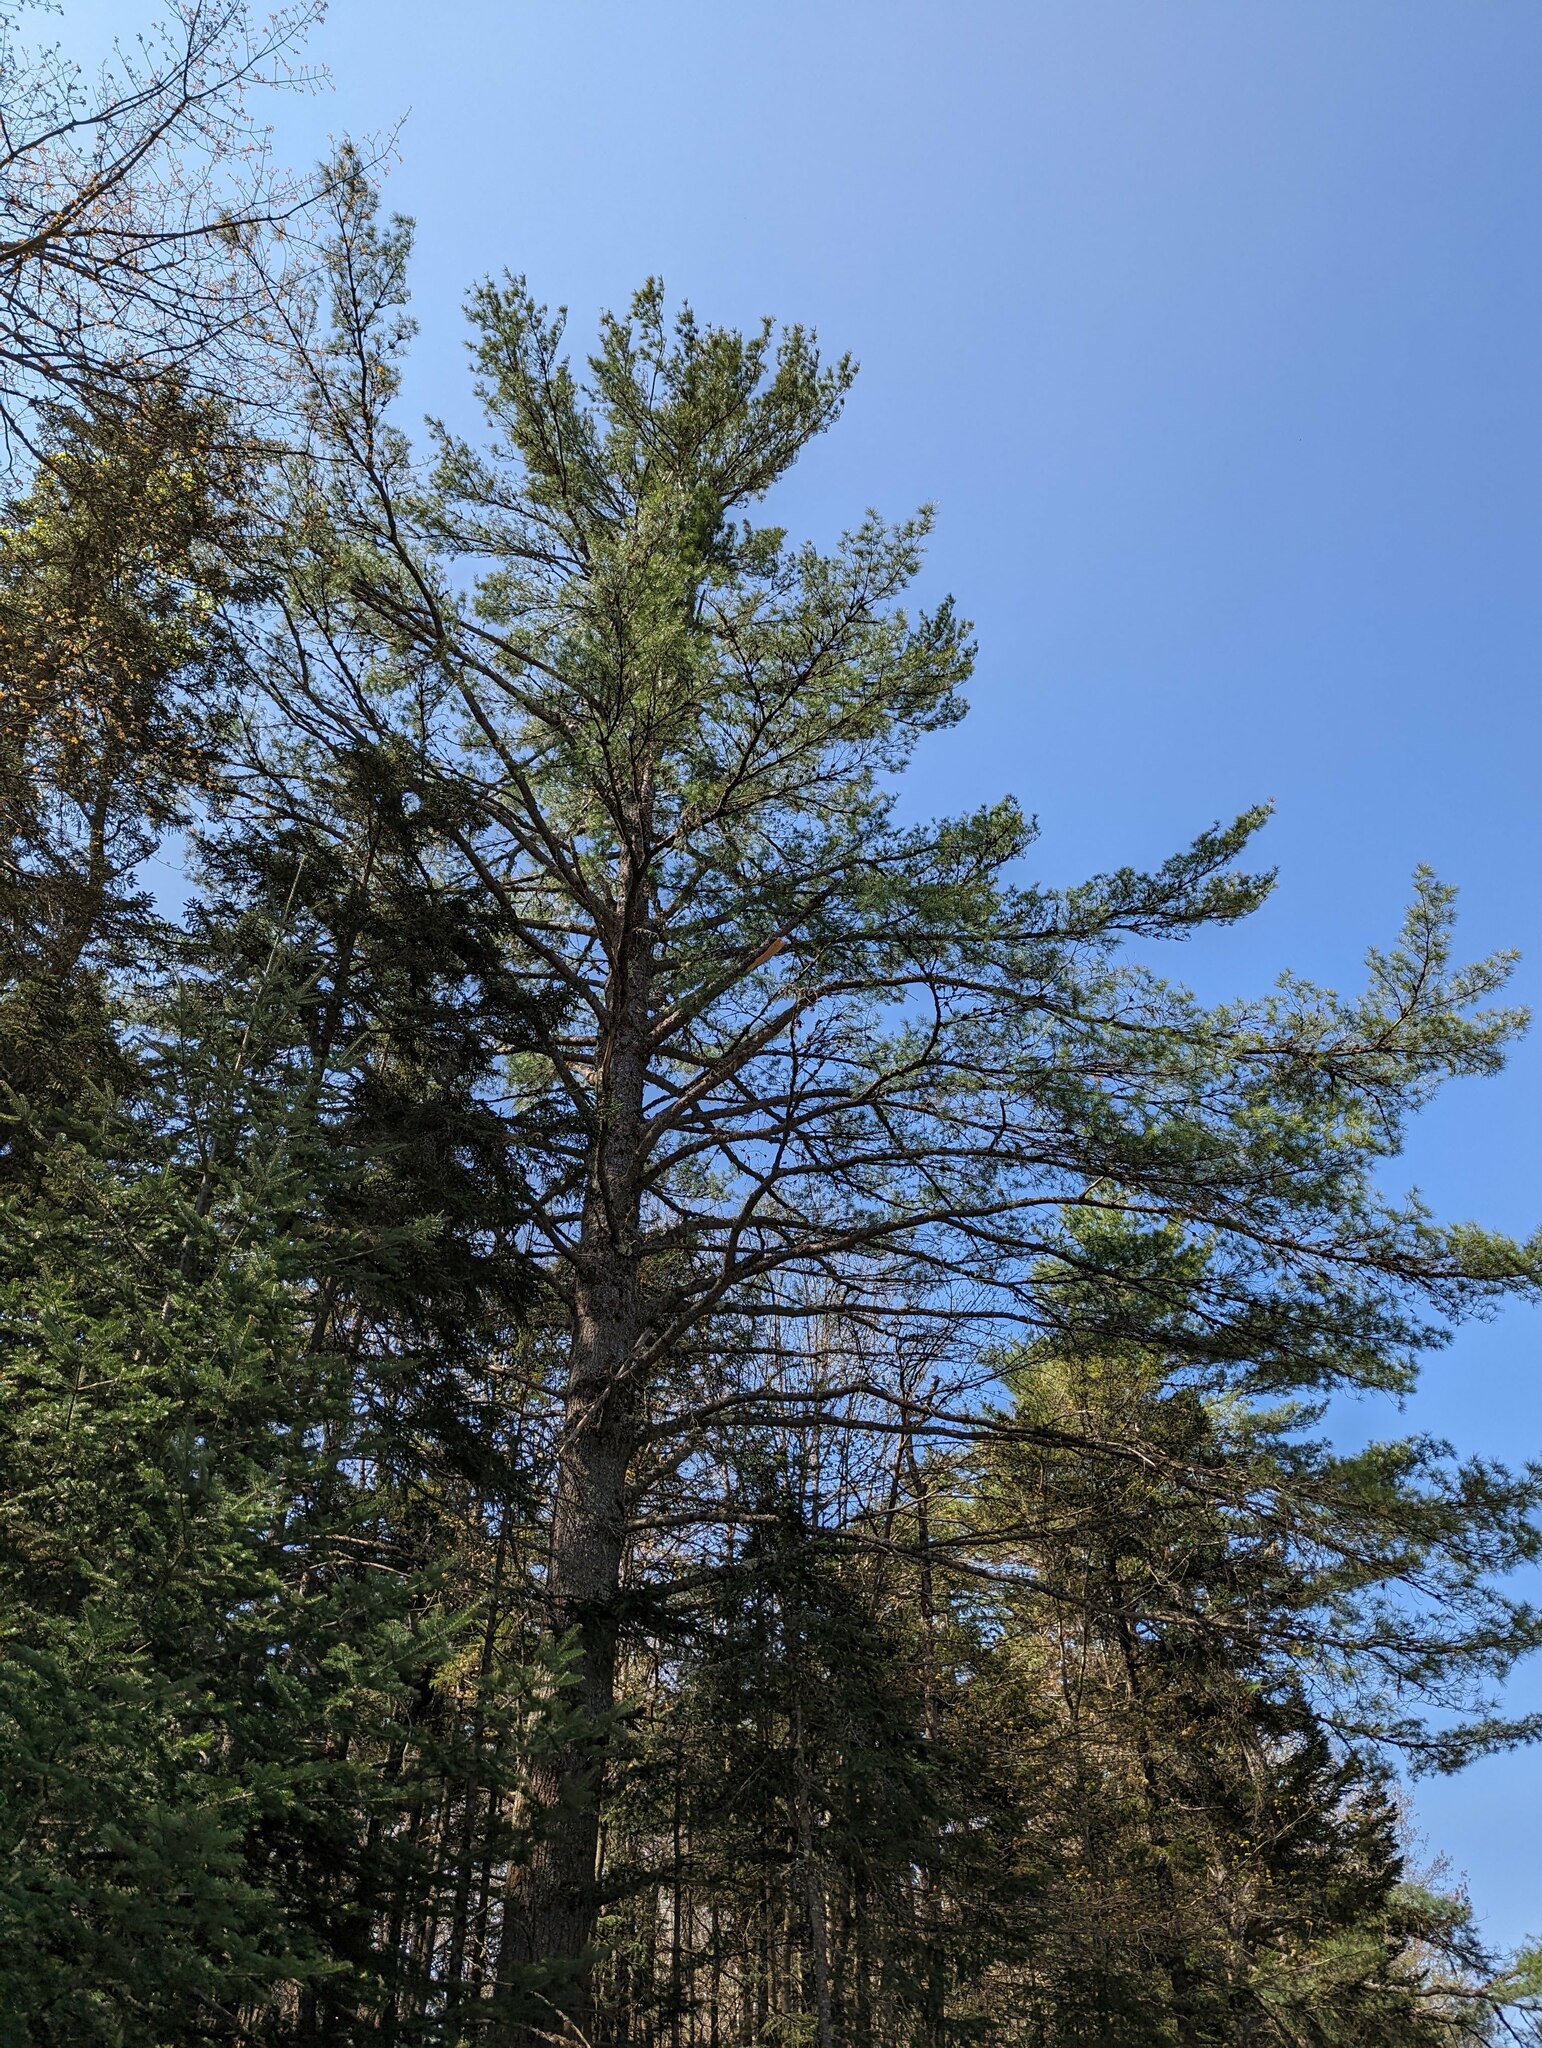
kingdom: Plantae
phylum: Tracheophyta
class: Pinopsida
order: Pinales
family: Pinaceae
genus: Pinus
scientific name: Pinus strobus
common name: Weymouth pine
